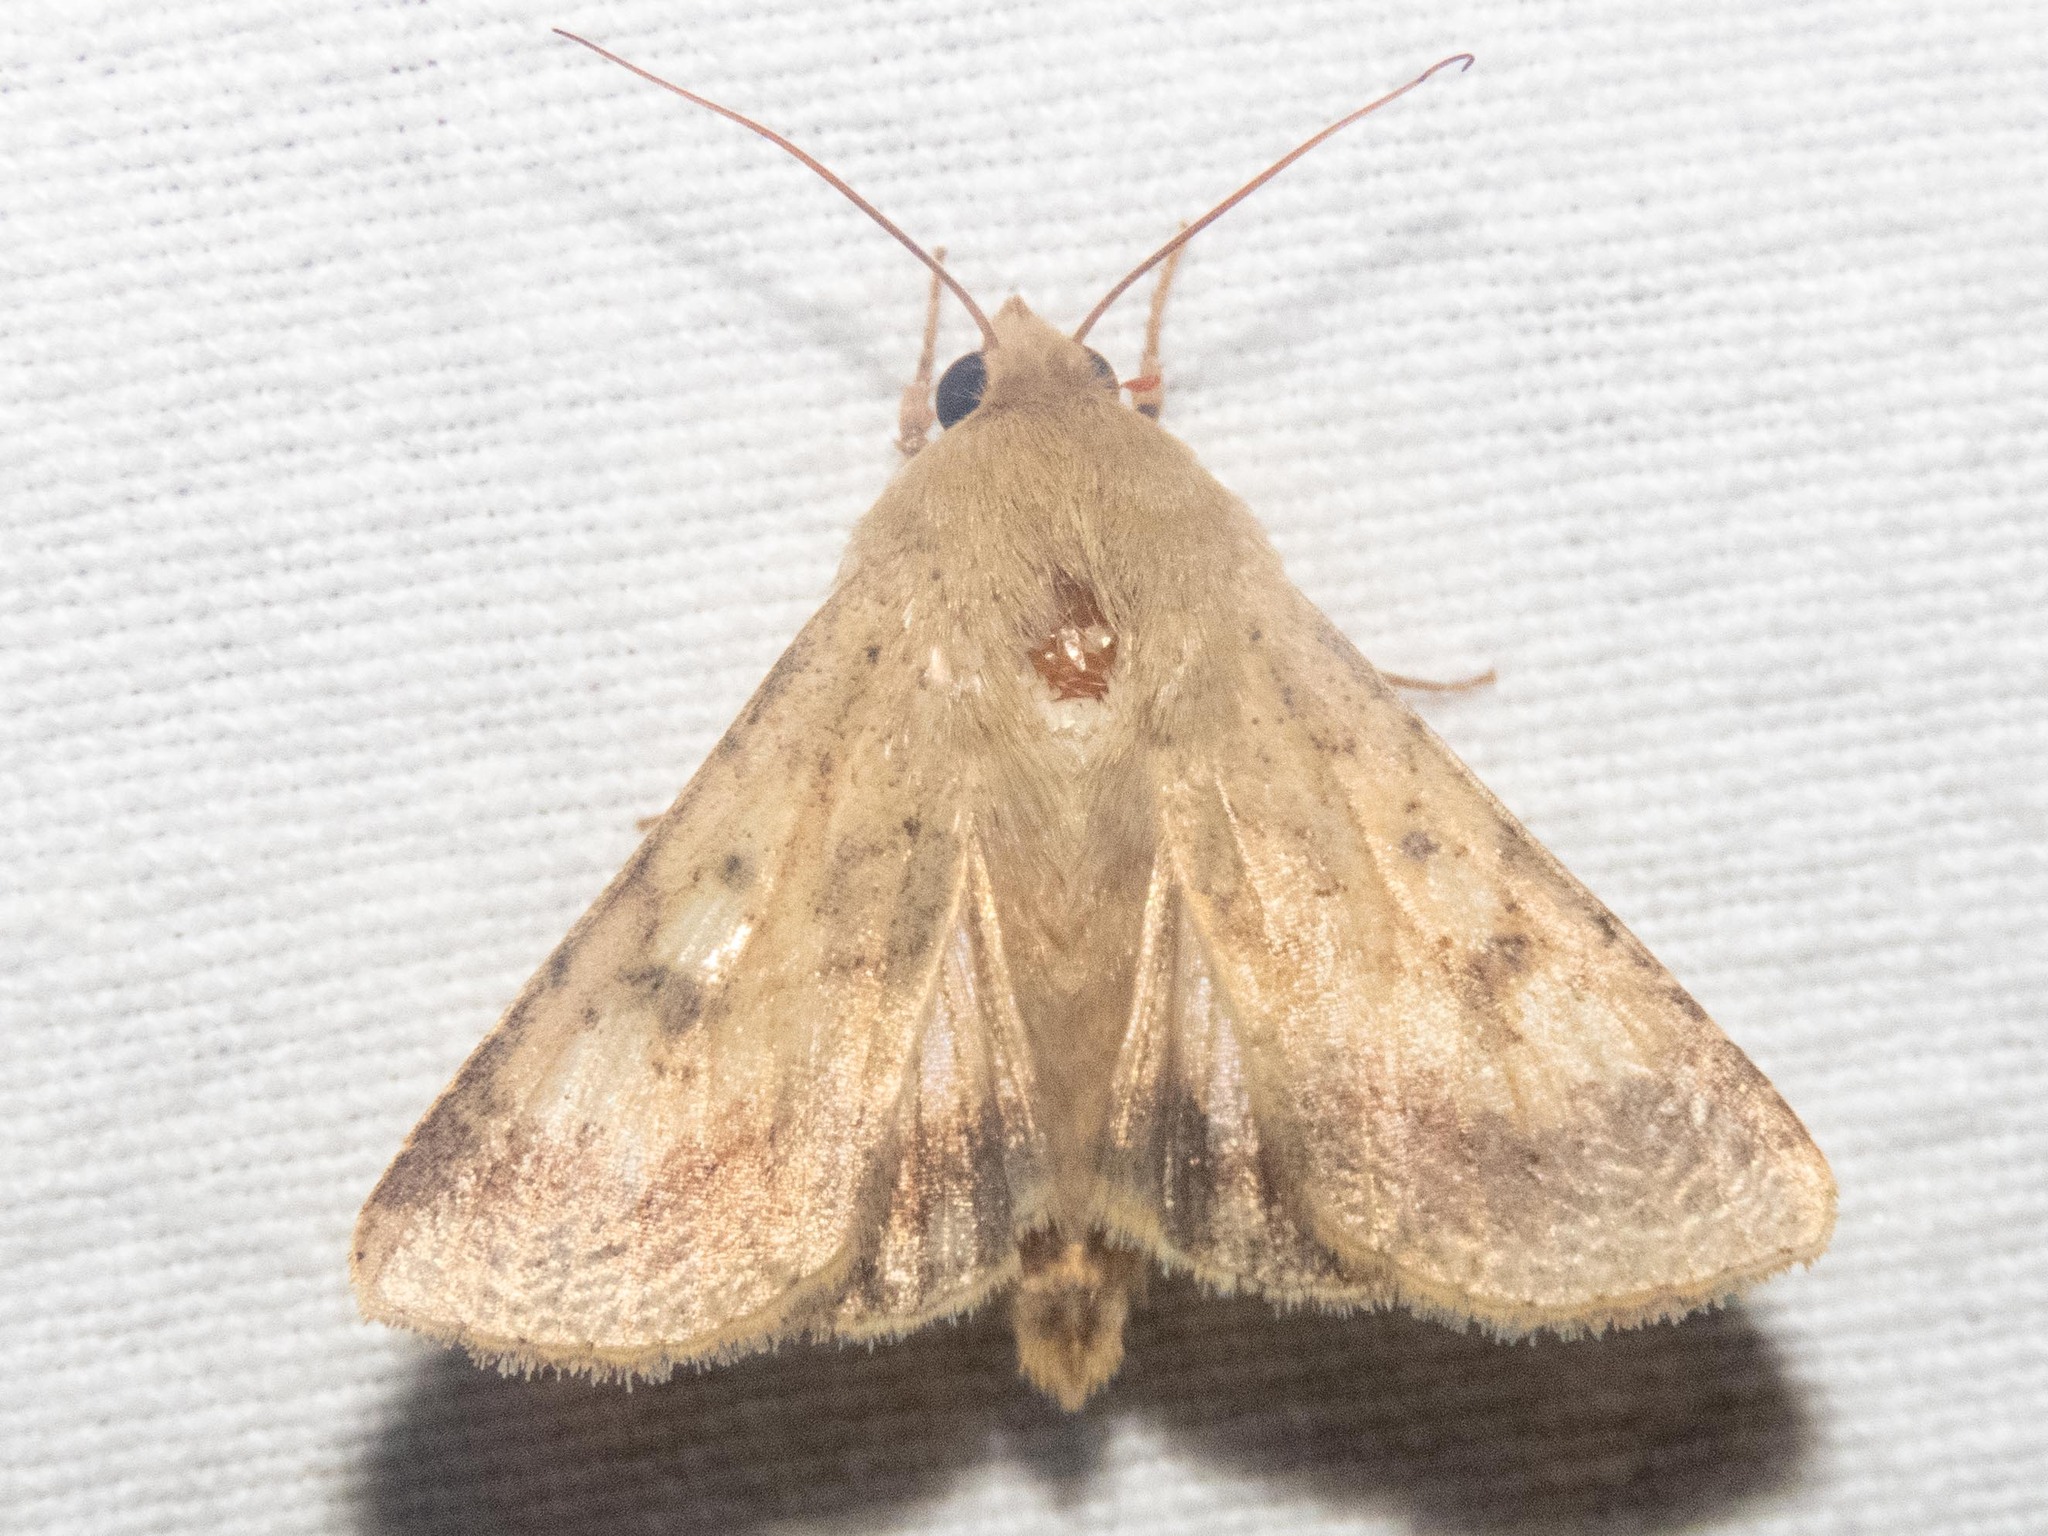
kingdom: Animalia
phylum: Arthropoda
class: Insecta
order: Lepidoptera
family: Noctuidae
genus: Helicoverpa
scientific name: Helicoverpa armigera
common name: Cotton bollworm
